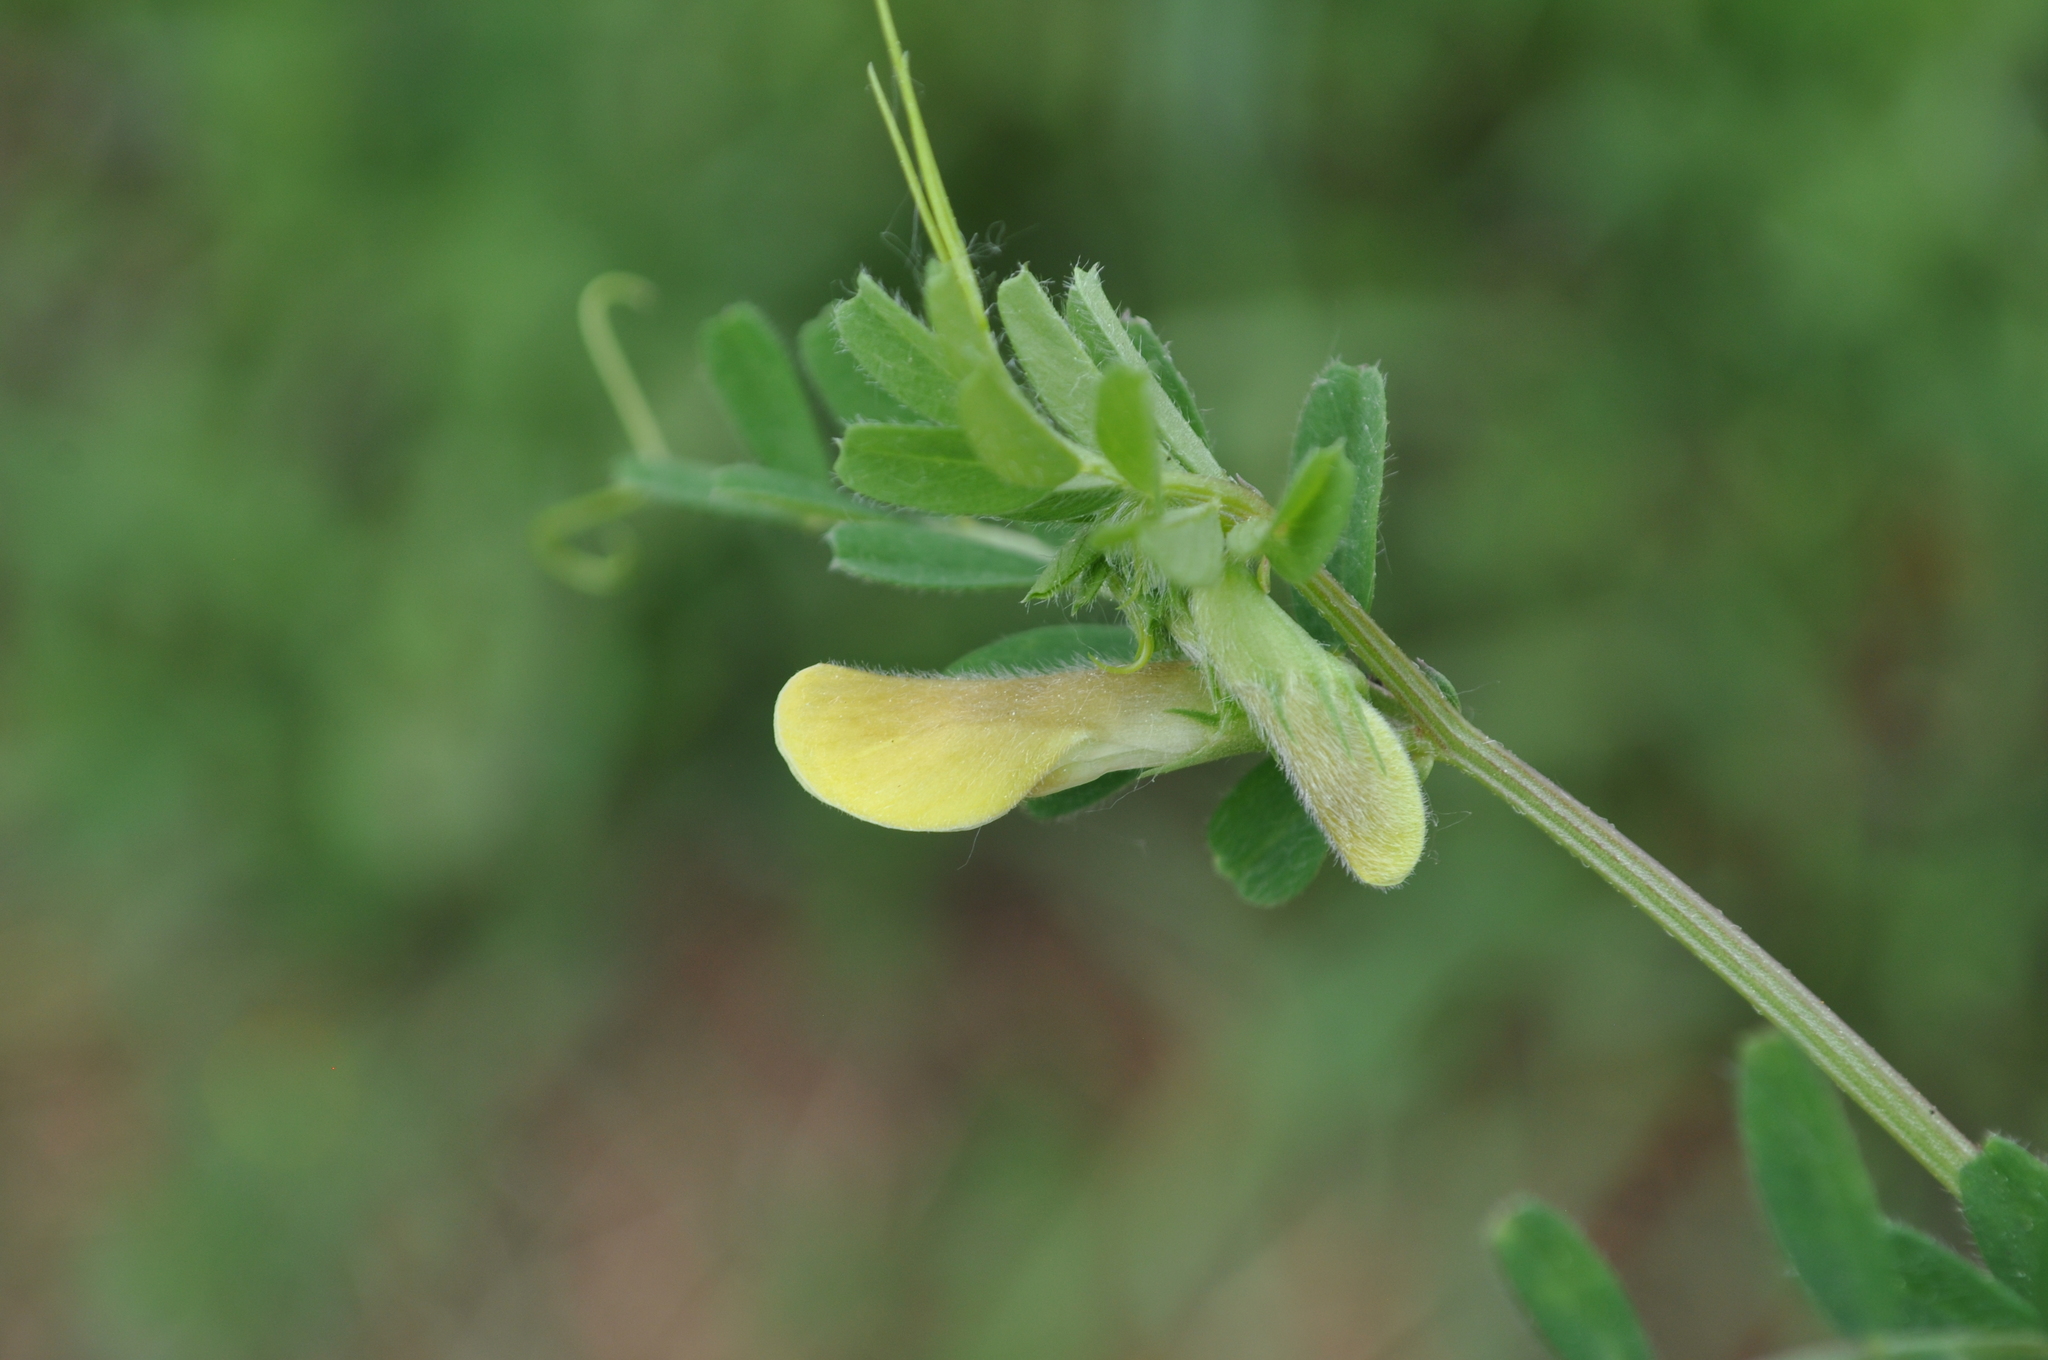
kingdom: Plantae
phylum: Tracheophyta
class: Magnoliopsida
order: Fabales
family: Fabaceae
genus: Vicia
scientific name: Vicia hybrida
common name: Hairy yellow vetch
